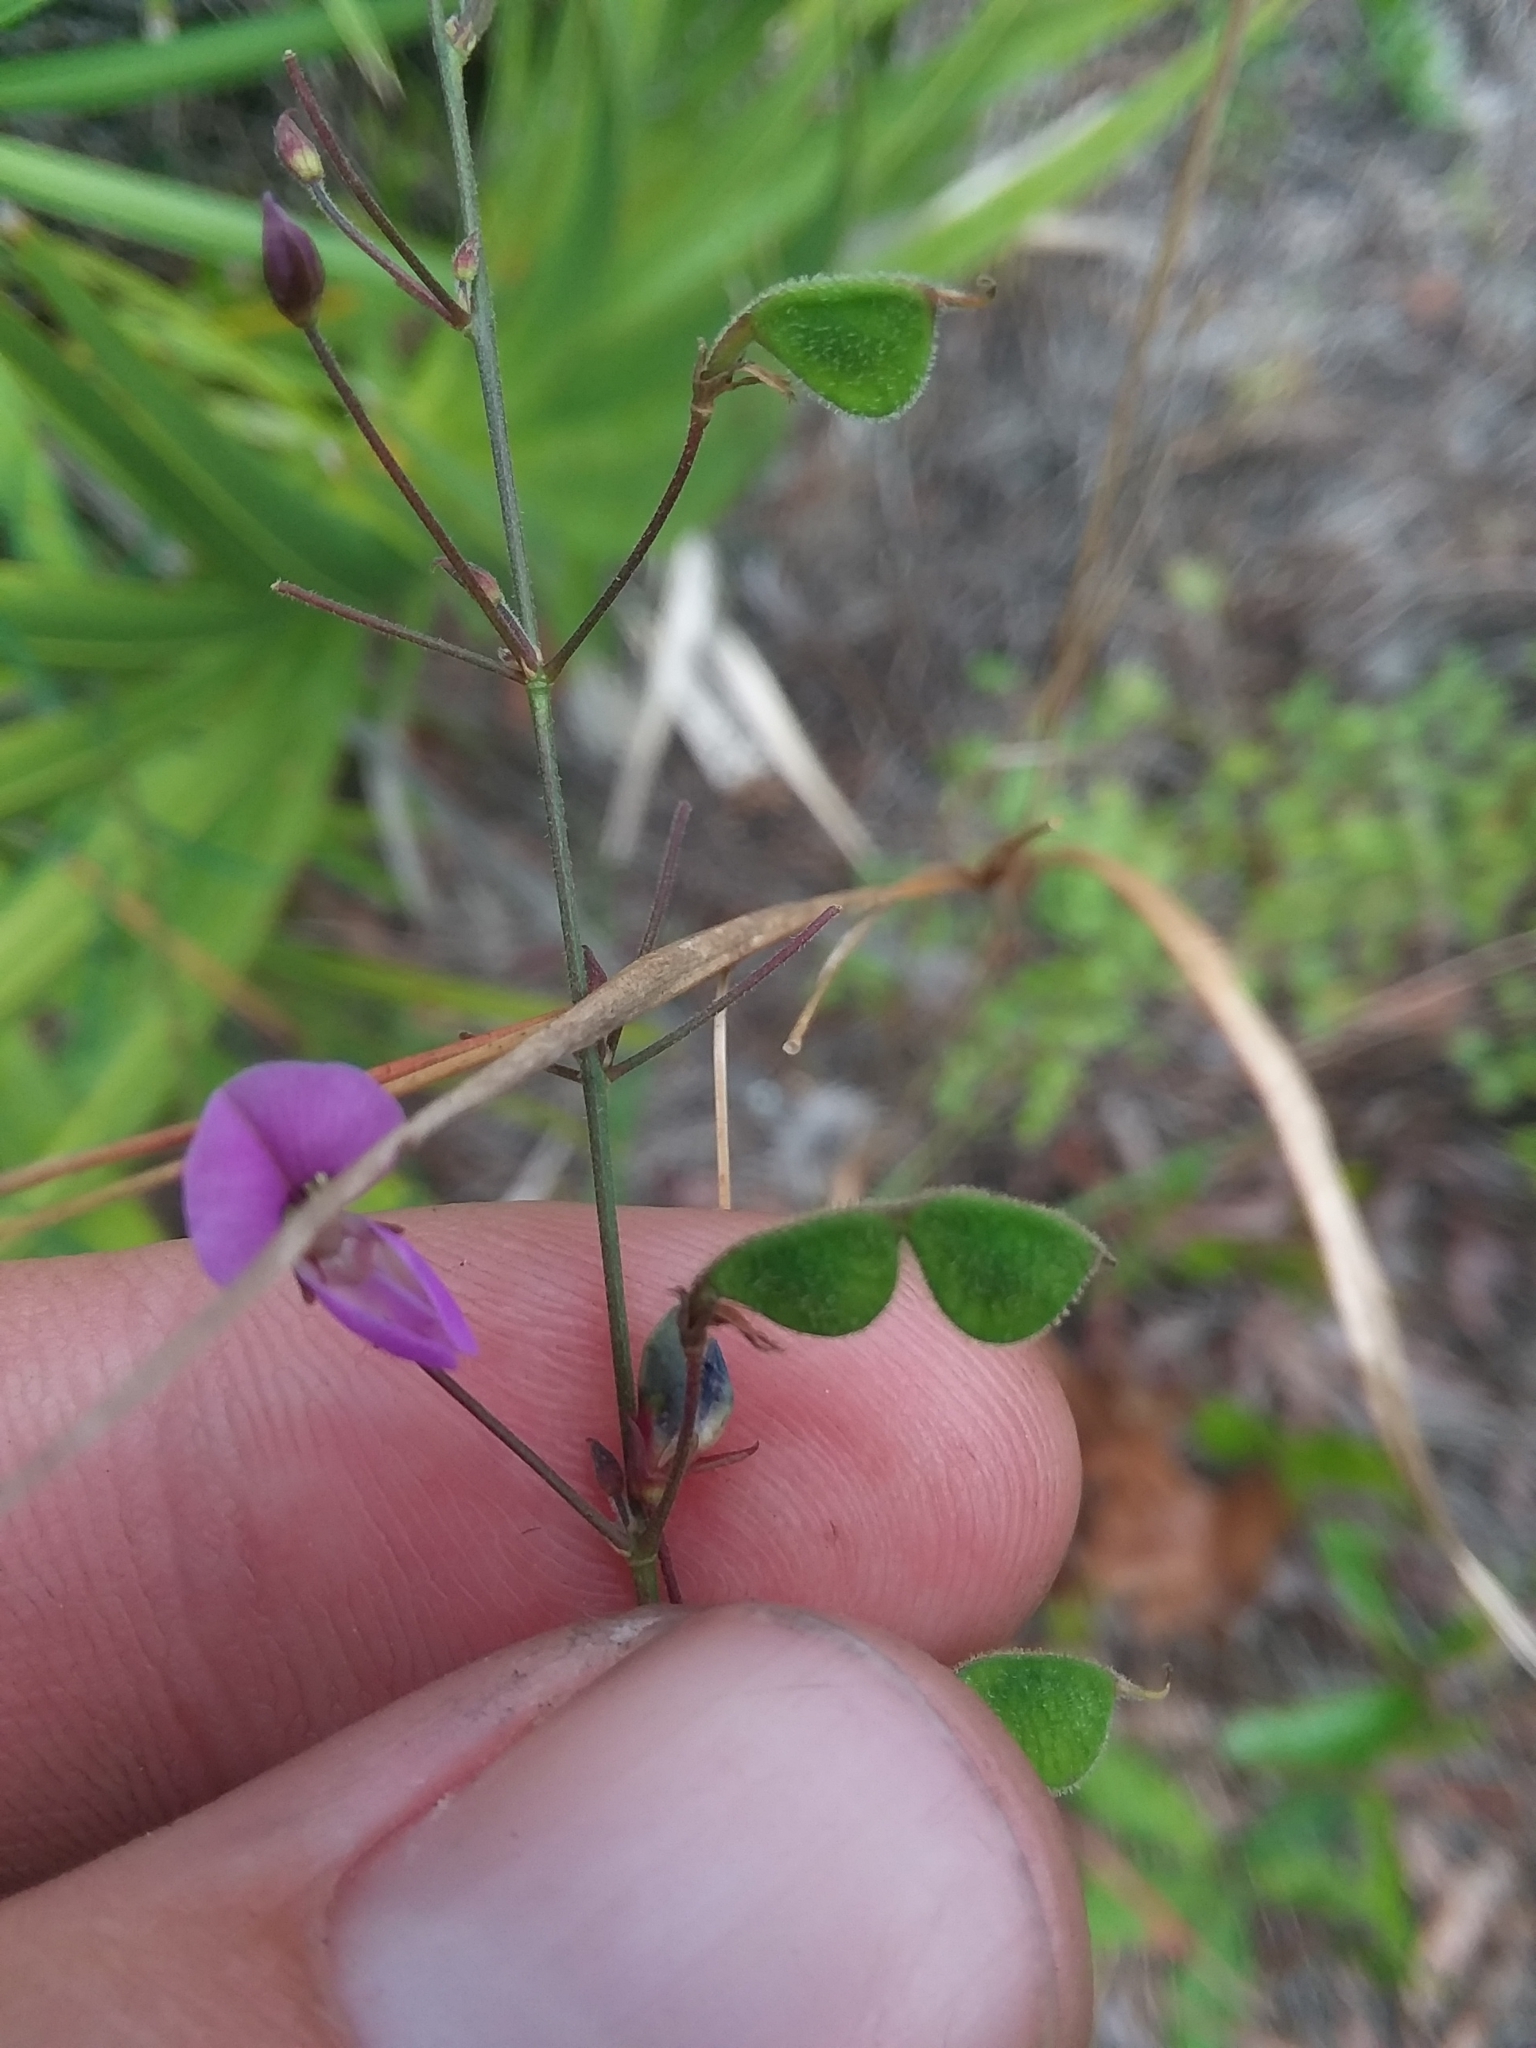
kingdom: Plantae
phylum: Tracheophyta
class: Magnoliopsida
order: Fabales
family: Fabaceae
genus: Desmodium
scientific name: Desmodium strictum
